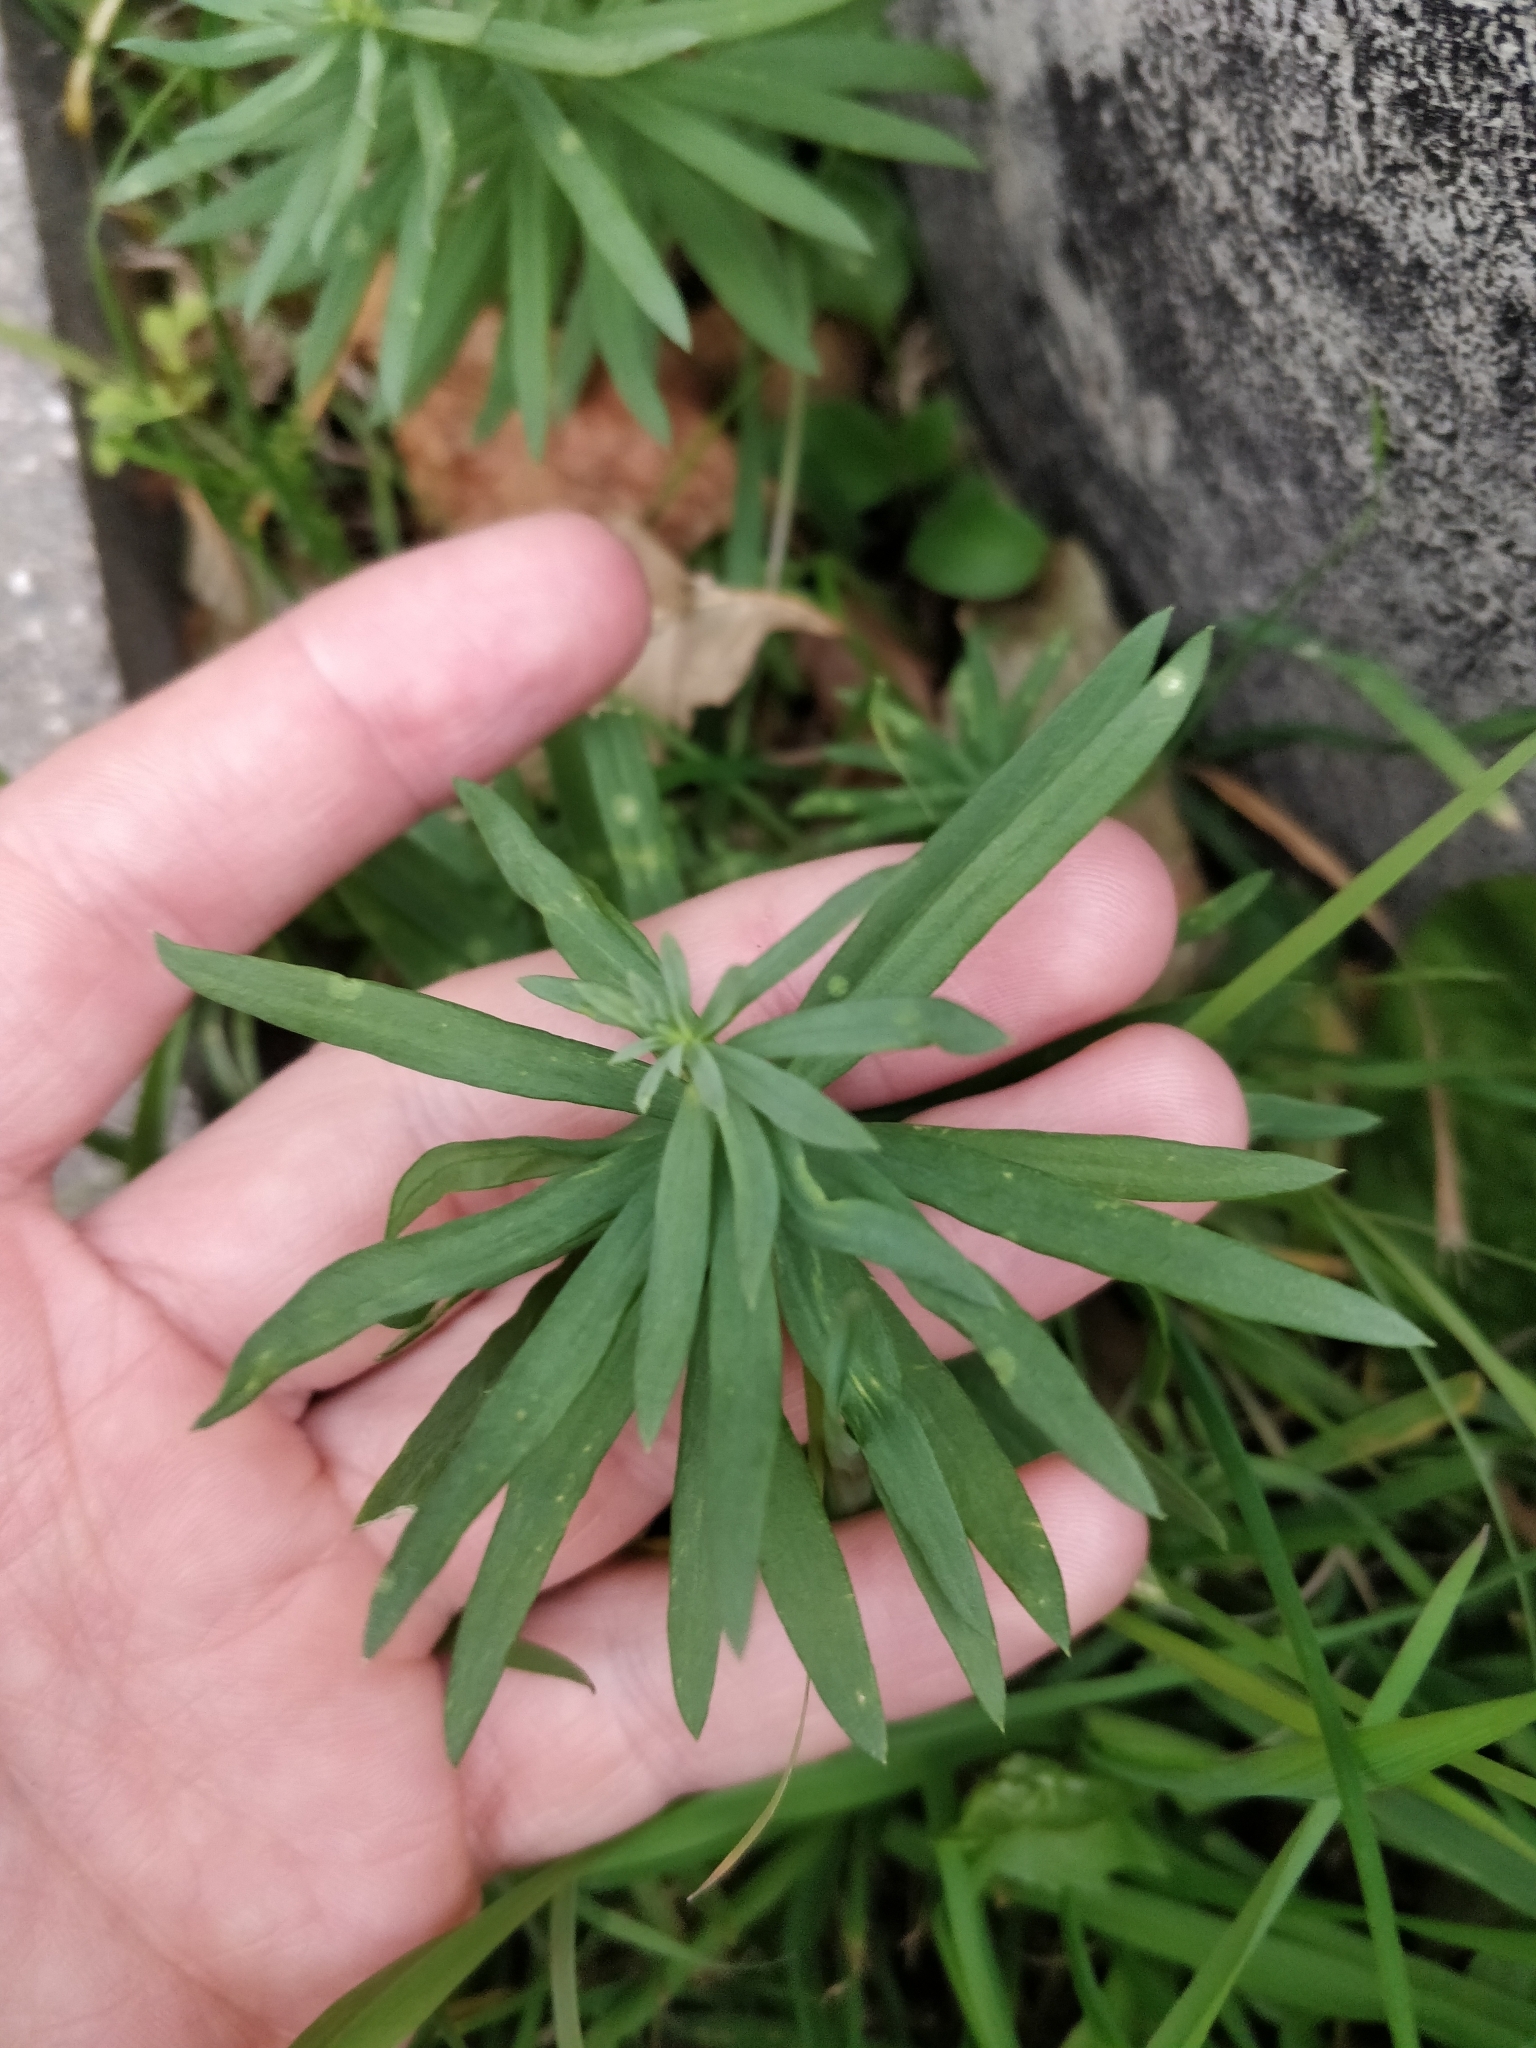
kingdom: Plantae
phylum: Tracheophyta
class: Magnoliopsida
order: Lamiales
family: Plantaginaceae
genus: Linaria
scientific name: Linaria vulgaris
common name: Butter and eggs
